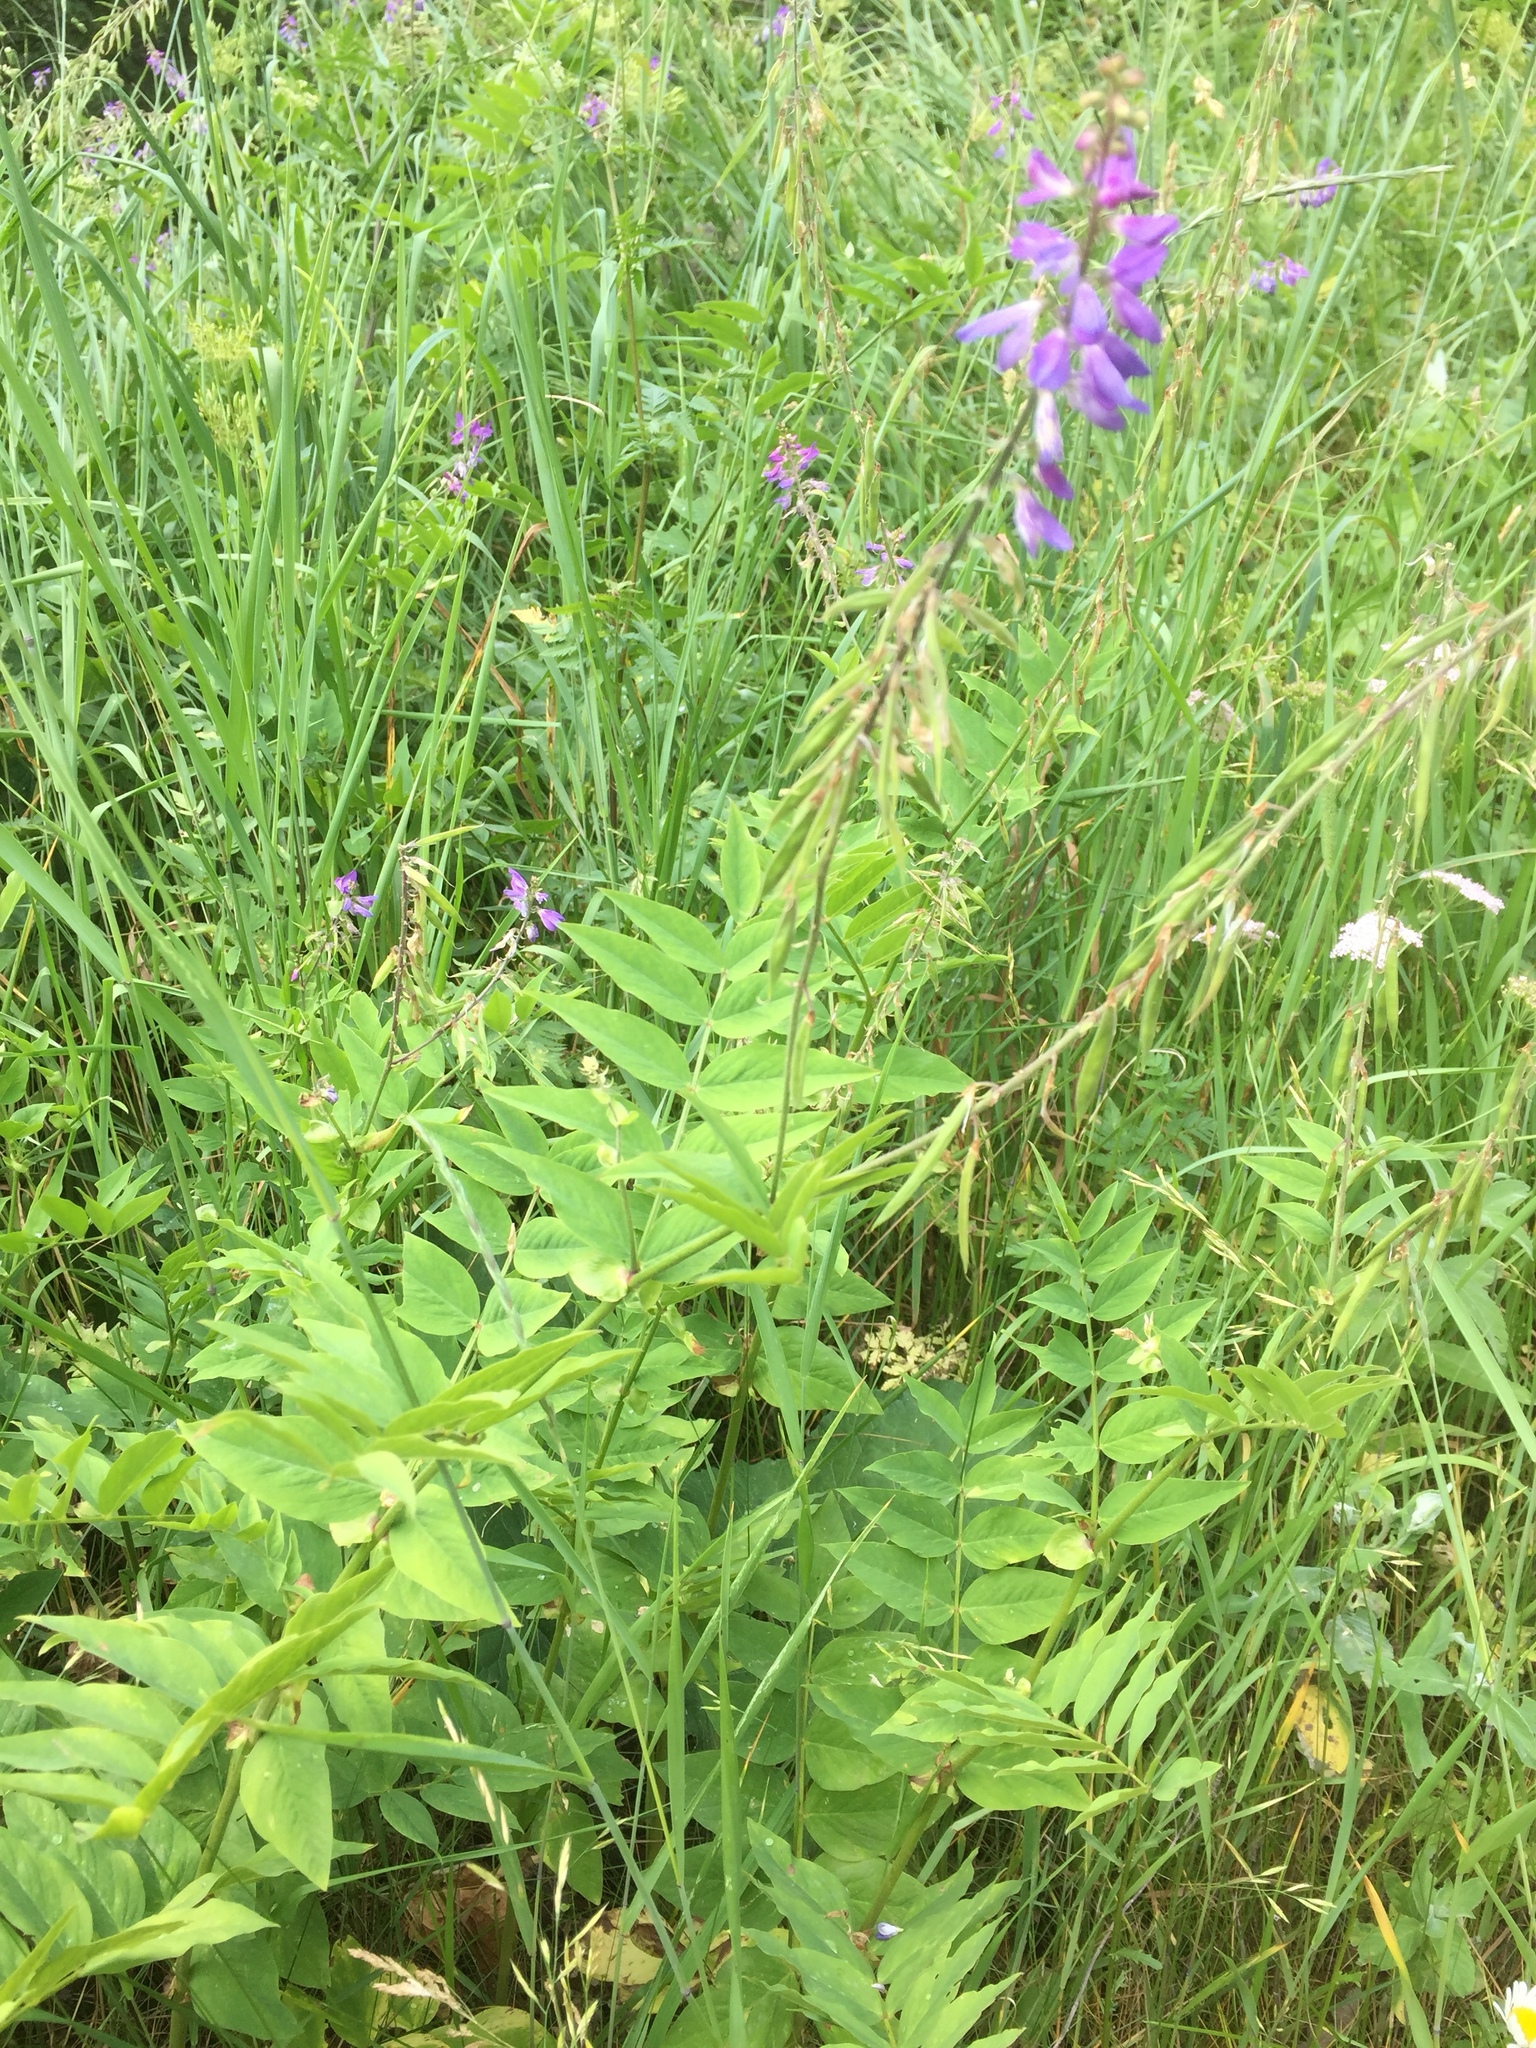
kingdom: Plantae
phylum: Tracheophyta
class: Magnoliopsida
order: Fabales
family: Fabaceae
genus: Galega
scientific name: Galega orientalis
